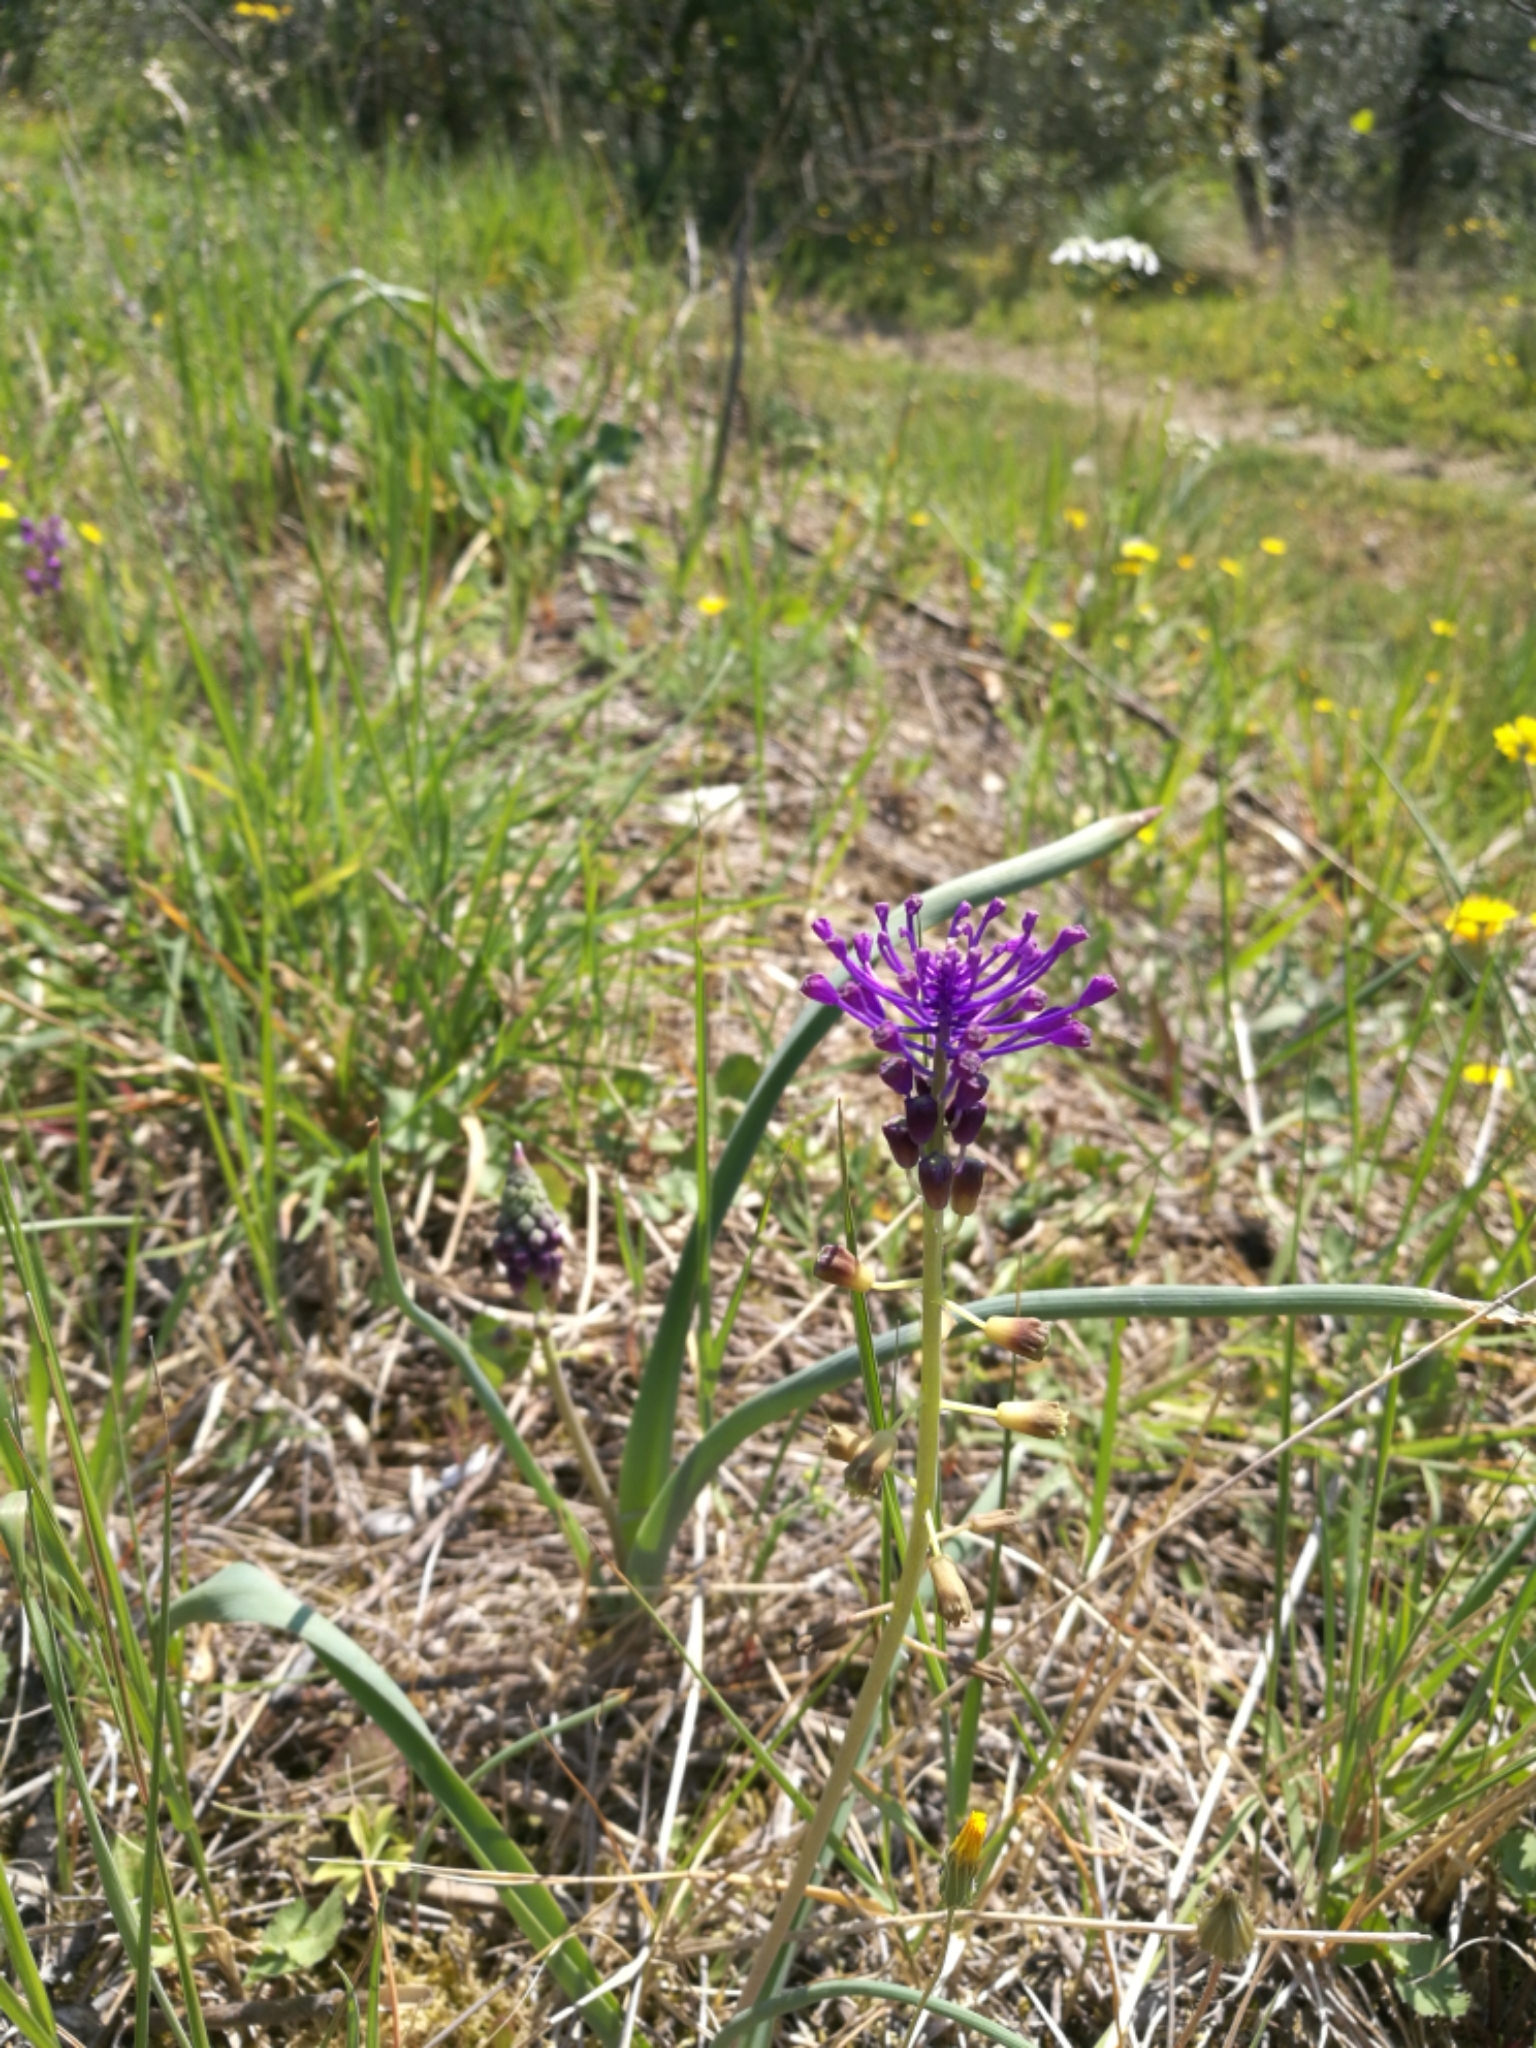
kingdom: Plantae
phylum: Tracheophyta
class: Liliopsida
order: Asparagales
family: Asparagaceae
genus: Muscari
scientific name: Muscari comosum
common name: Tassel hyacinth
